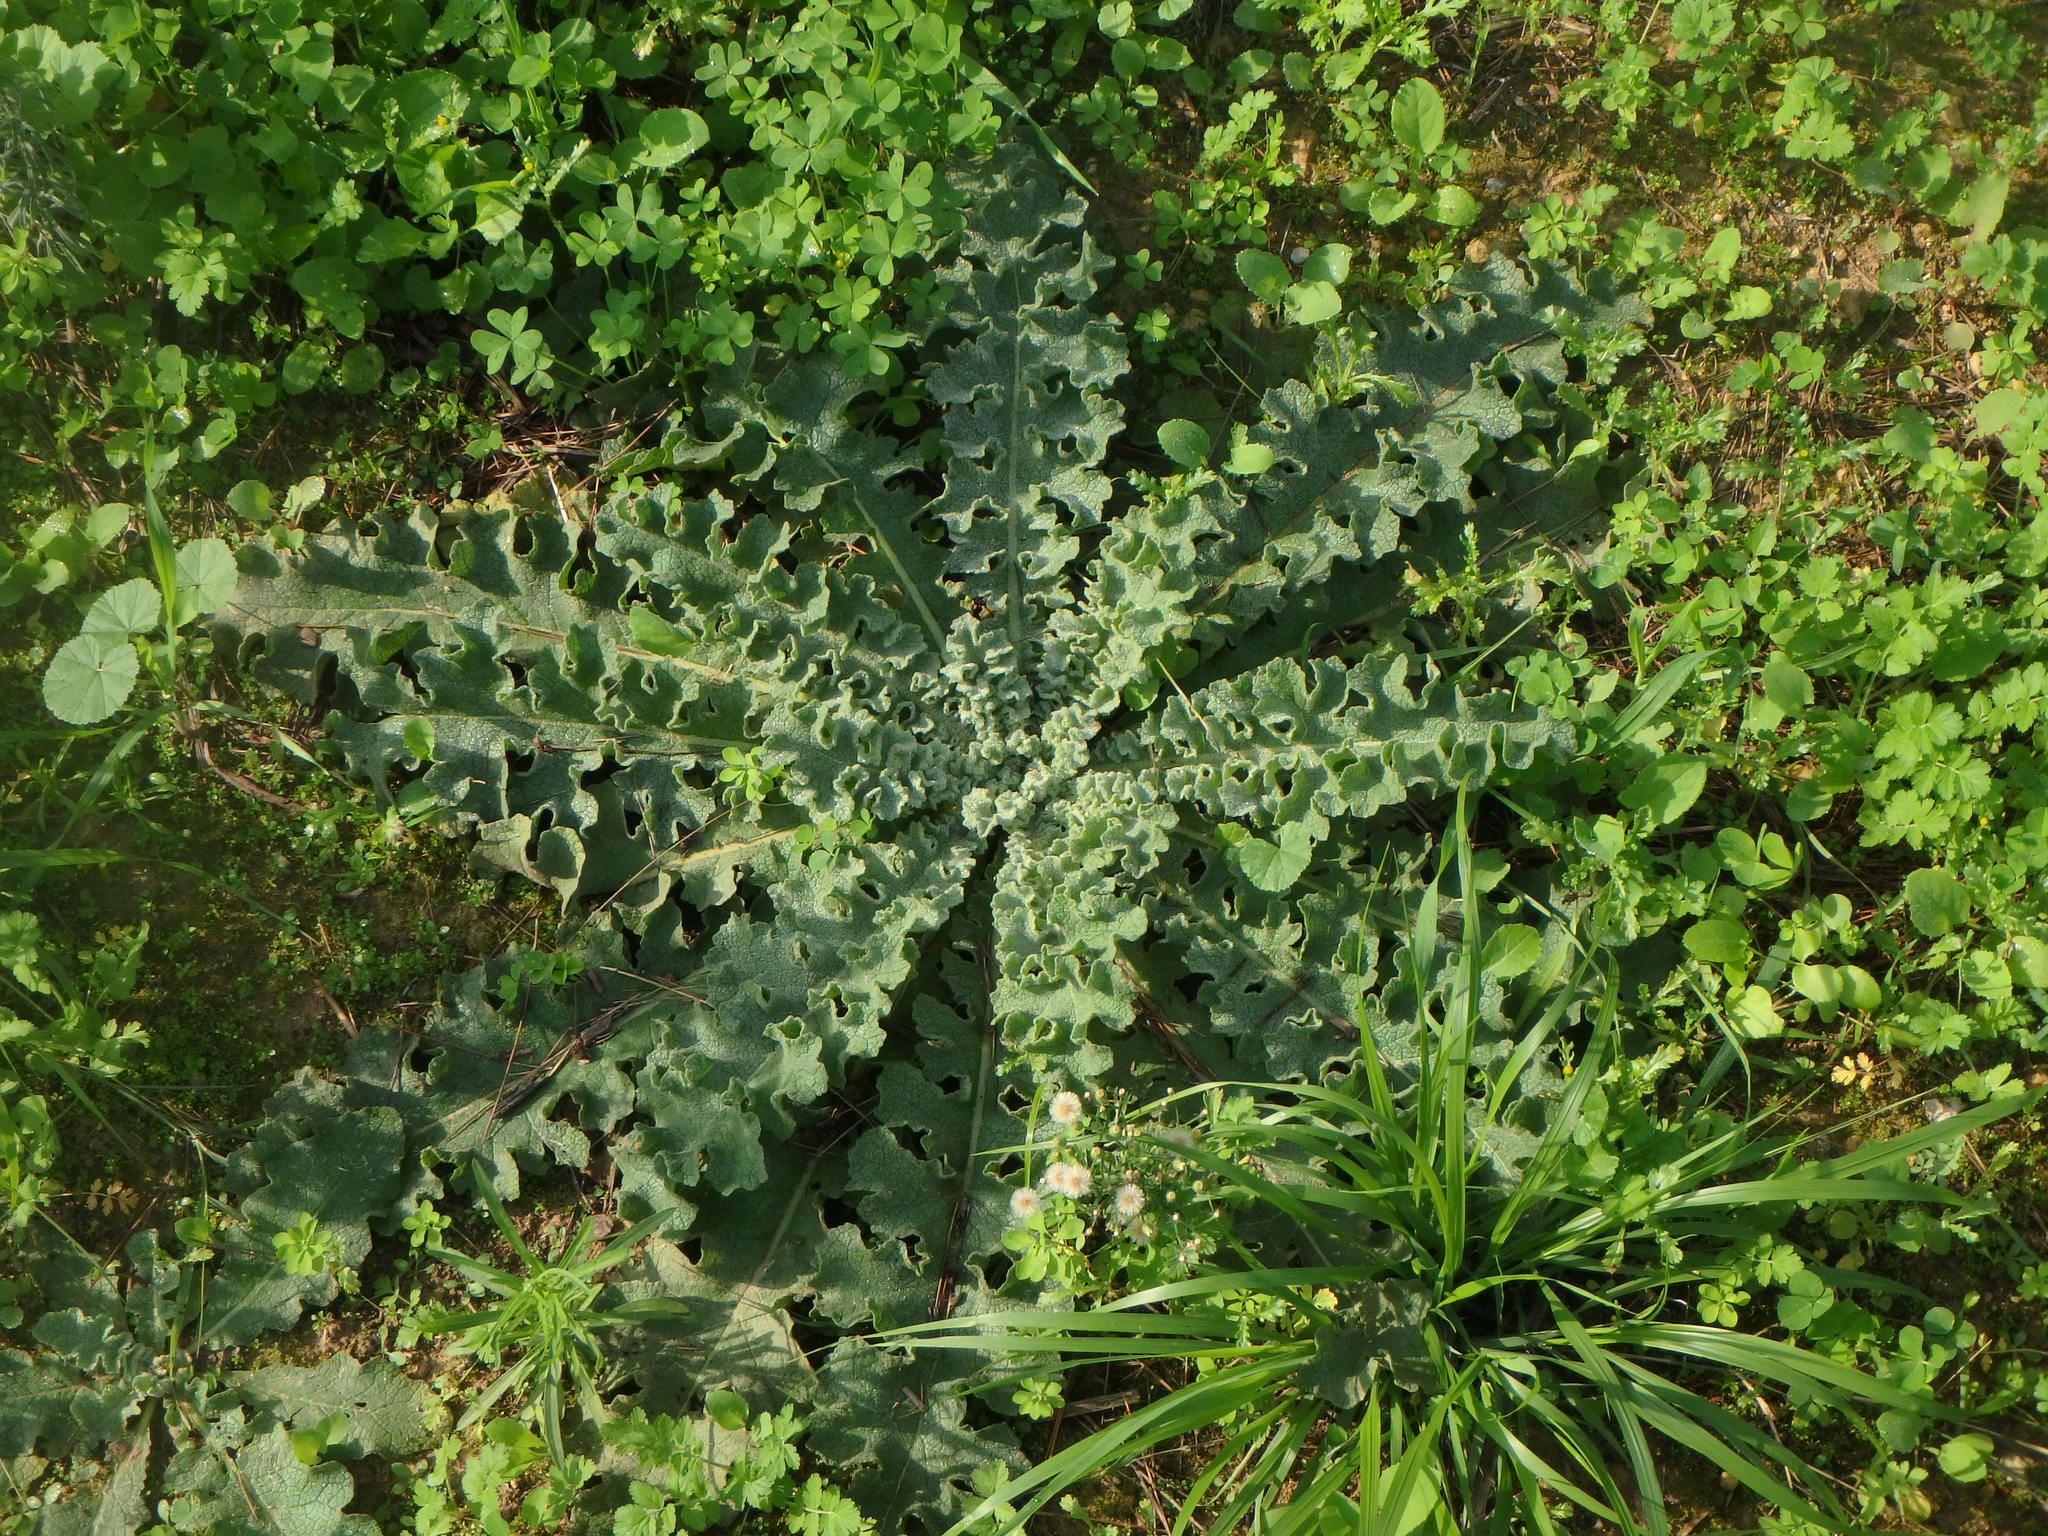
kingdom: Plantae
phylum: Tracheophyta
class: Magnoliopsida
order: Lamiales
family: Scrophulariaceae
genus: Verbascum
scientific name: Verbascum sinuatum
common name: Wavyleaf mullein
